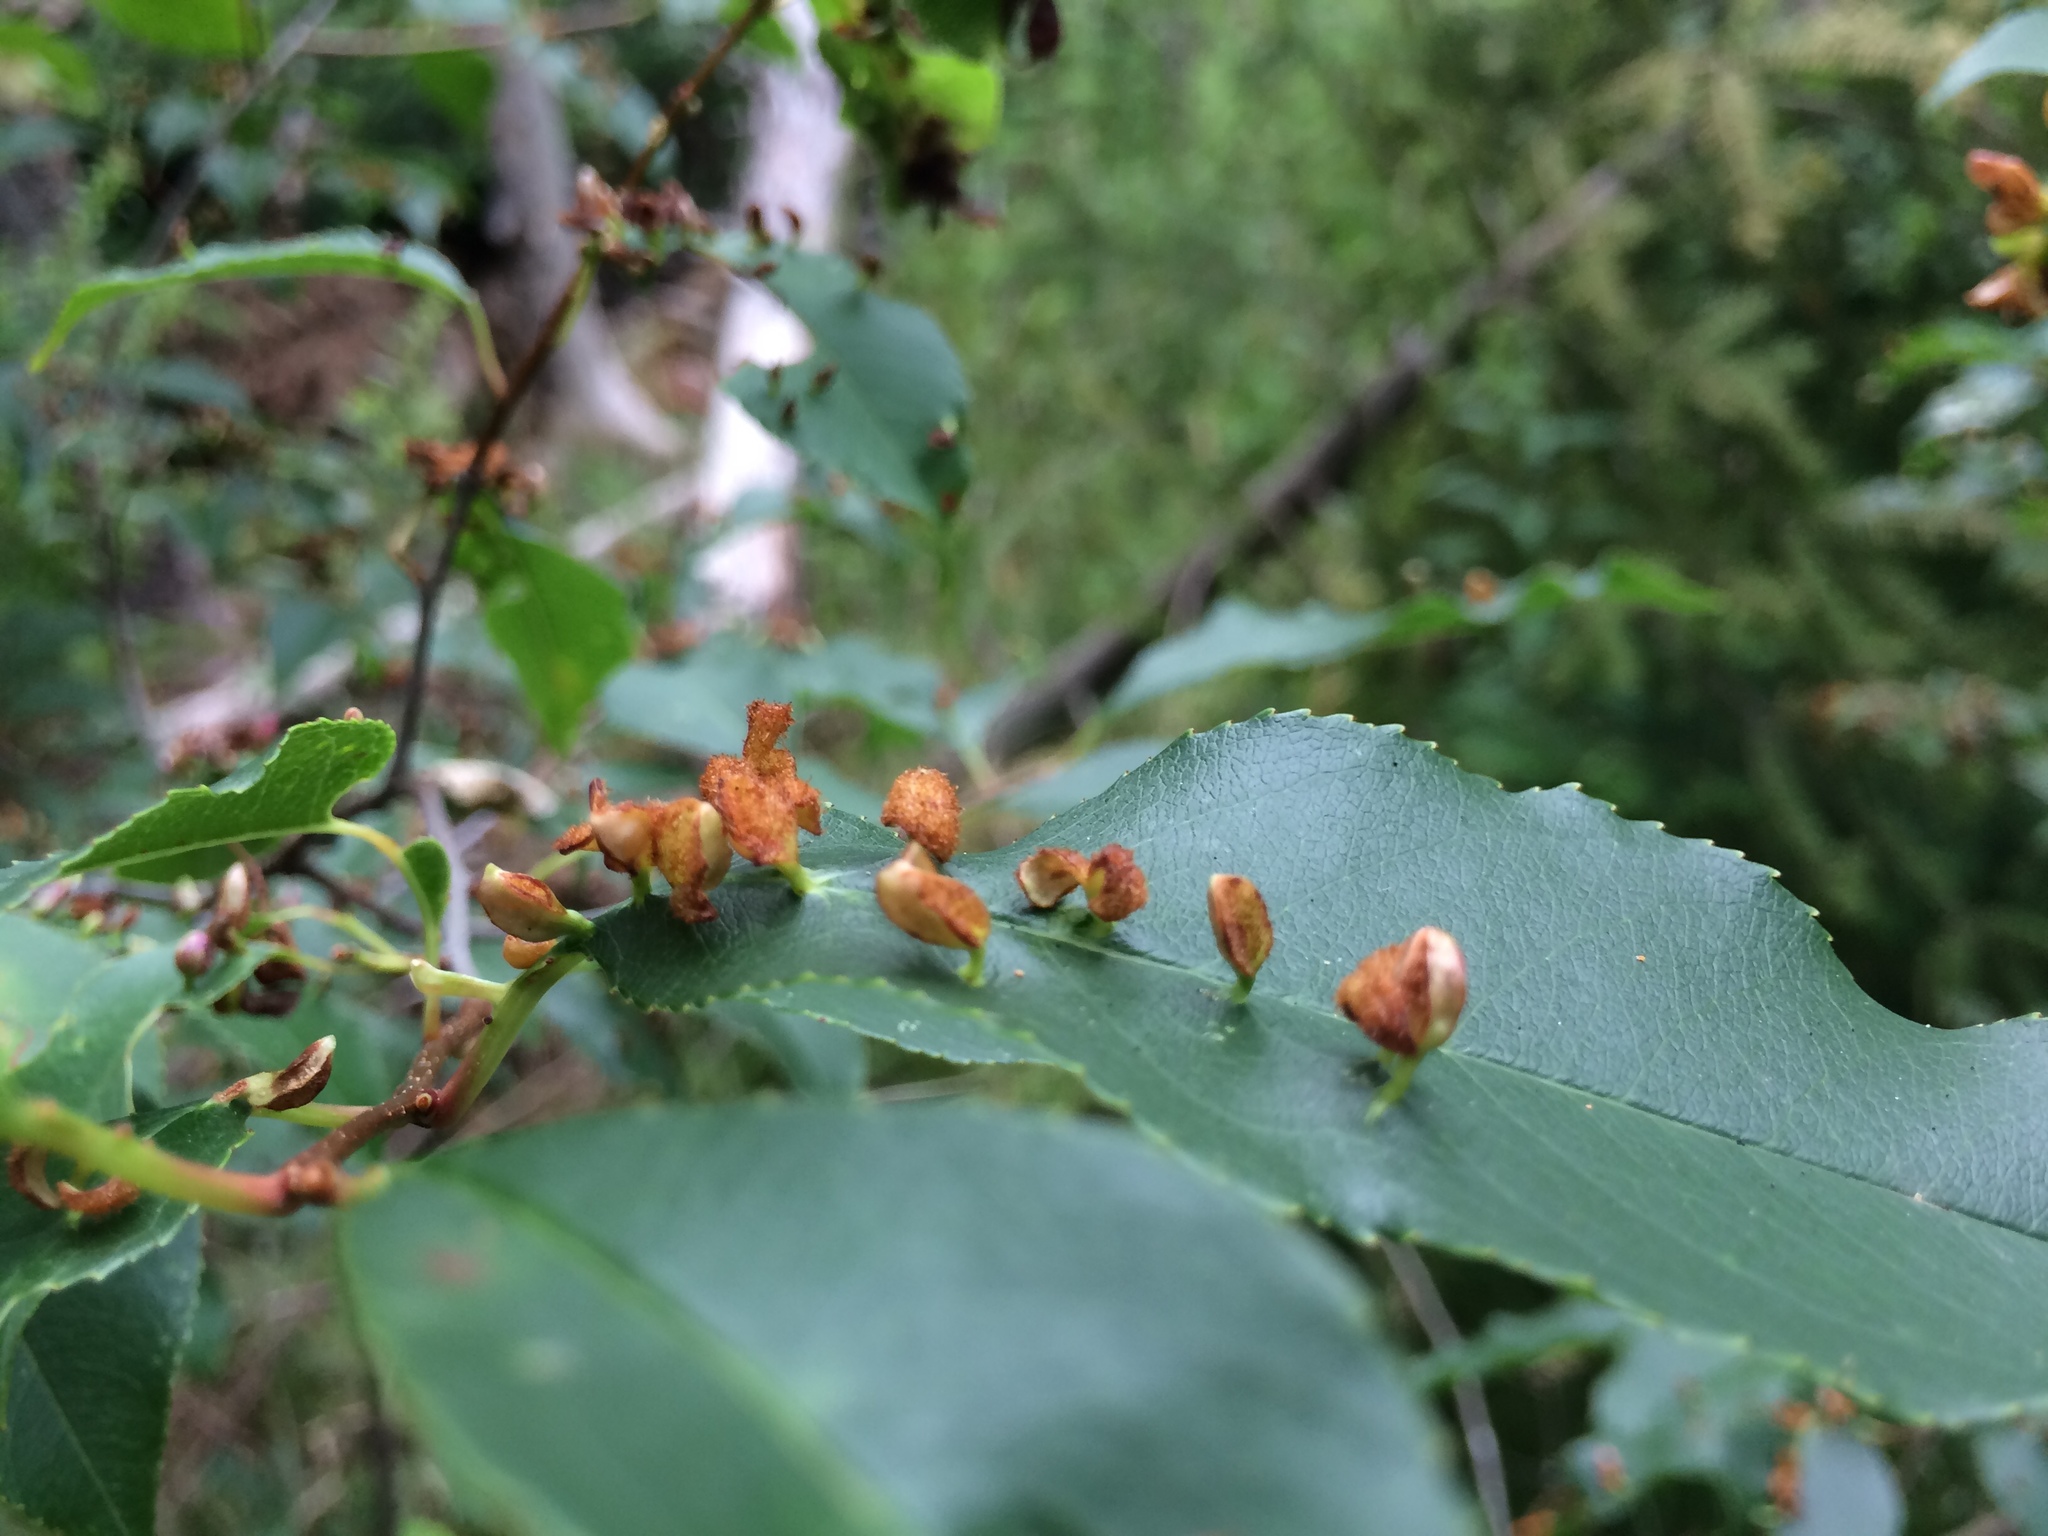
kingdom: Animalia
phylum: Arthropoda
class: Arachnida
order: Trombidiformes
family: Eriophyidae
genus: Eriophyes
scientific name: Eriophyes
